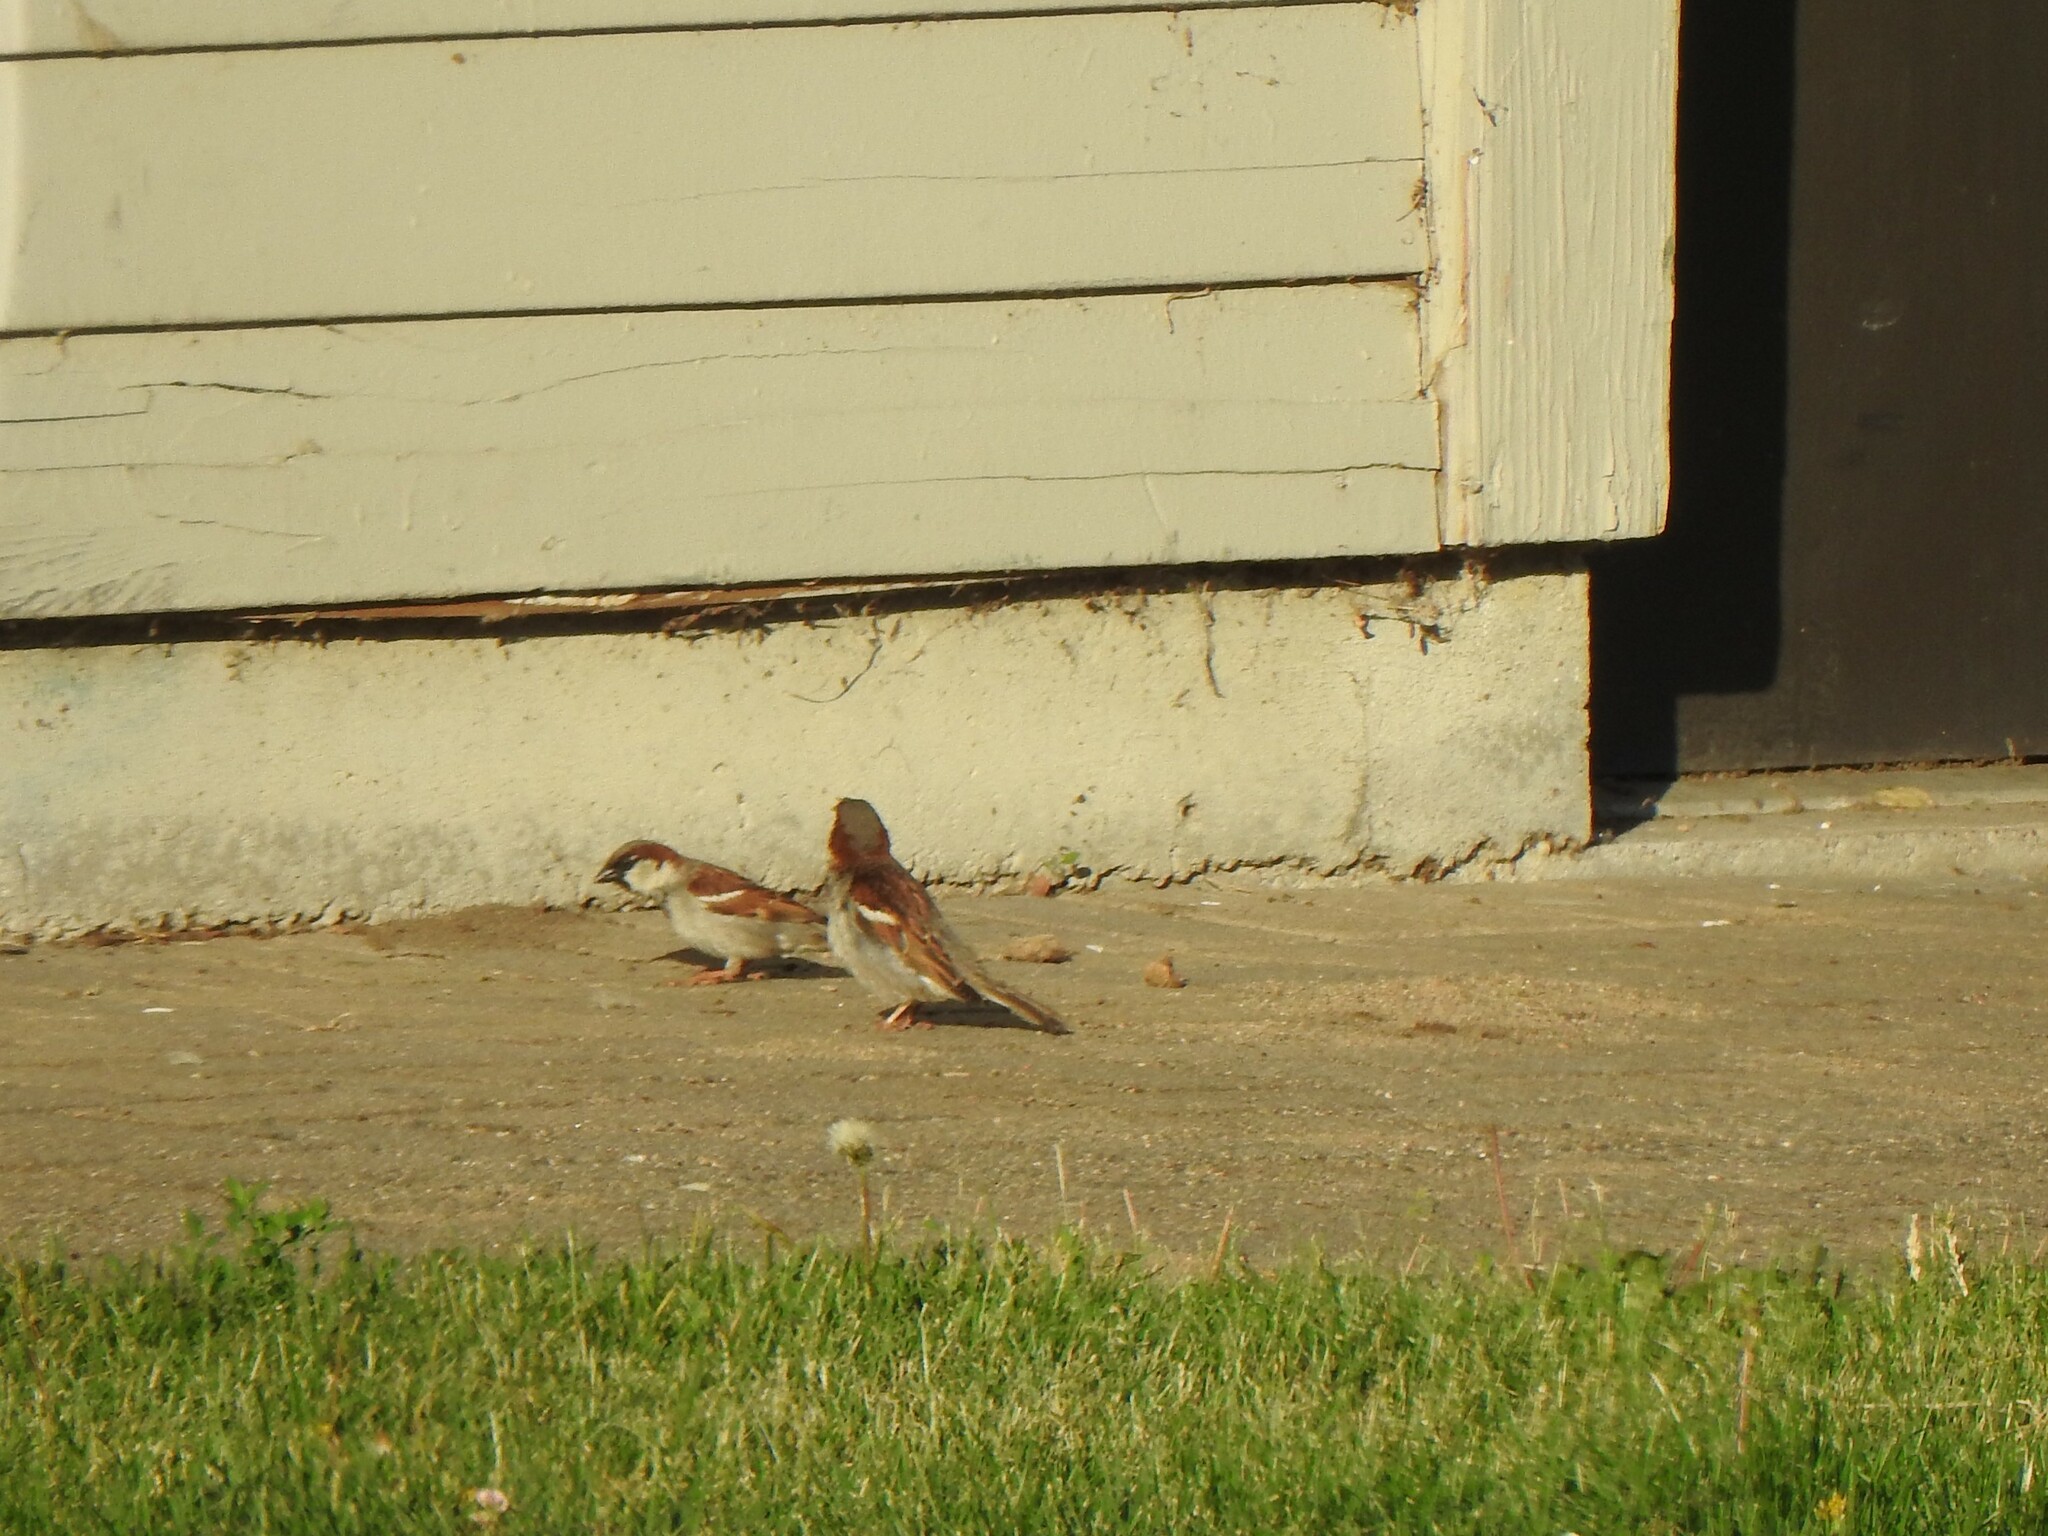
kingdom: Animalia
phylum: Chordata
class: Aves
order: Passeriformes
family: Passeridae
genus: Passer
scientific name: Passer domesticus
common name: House sparrow
